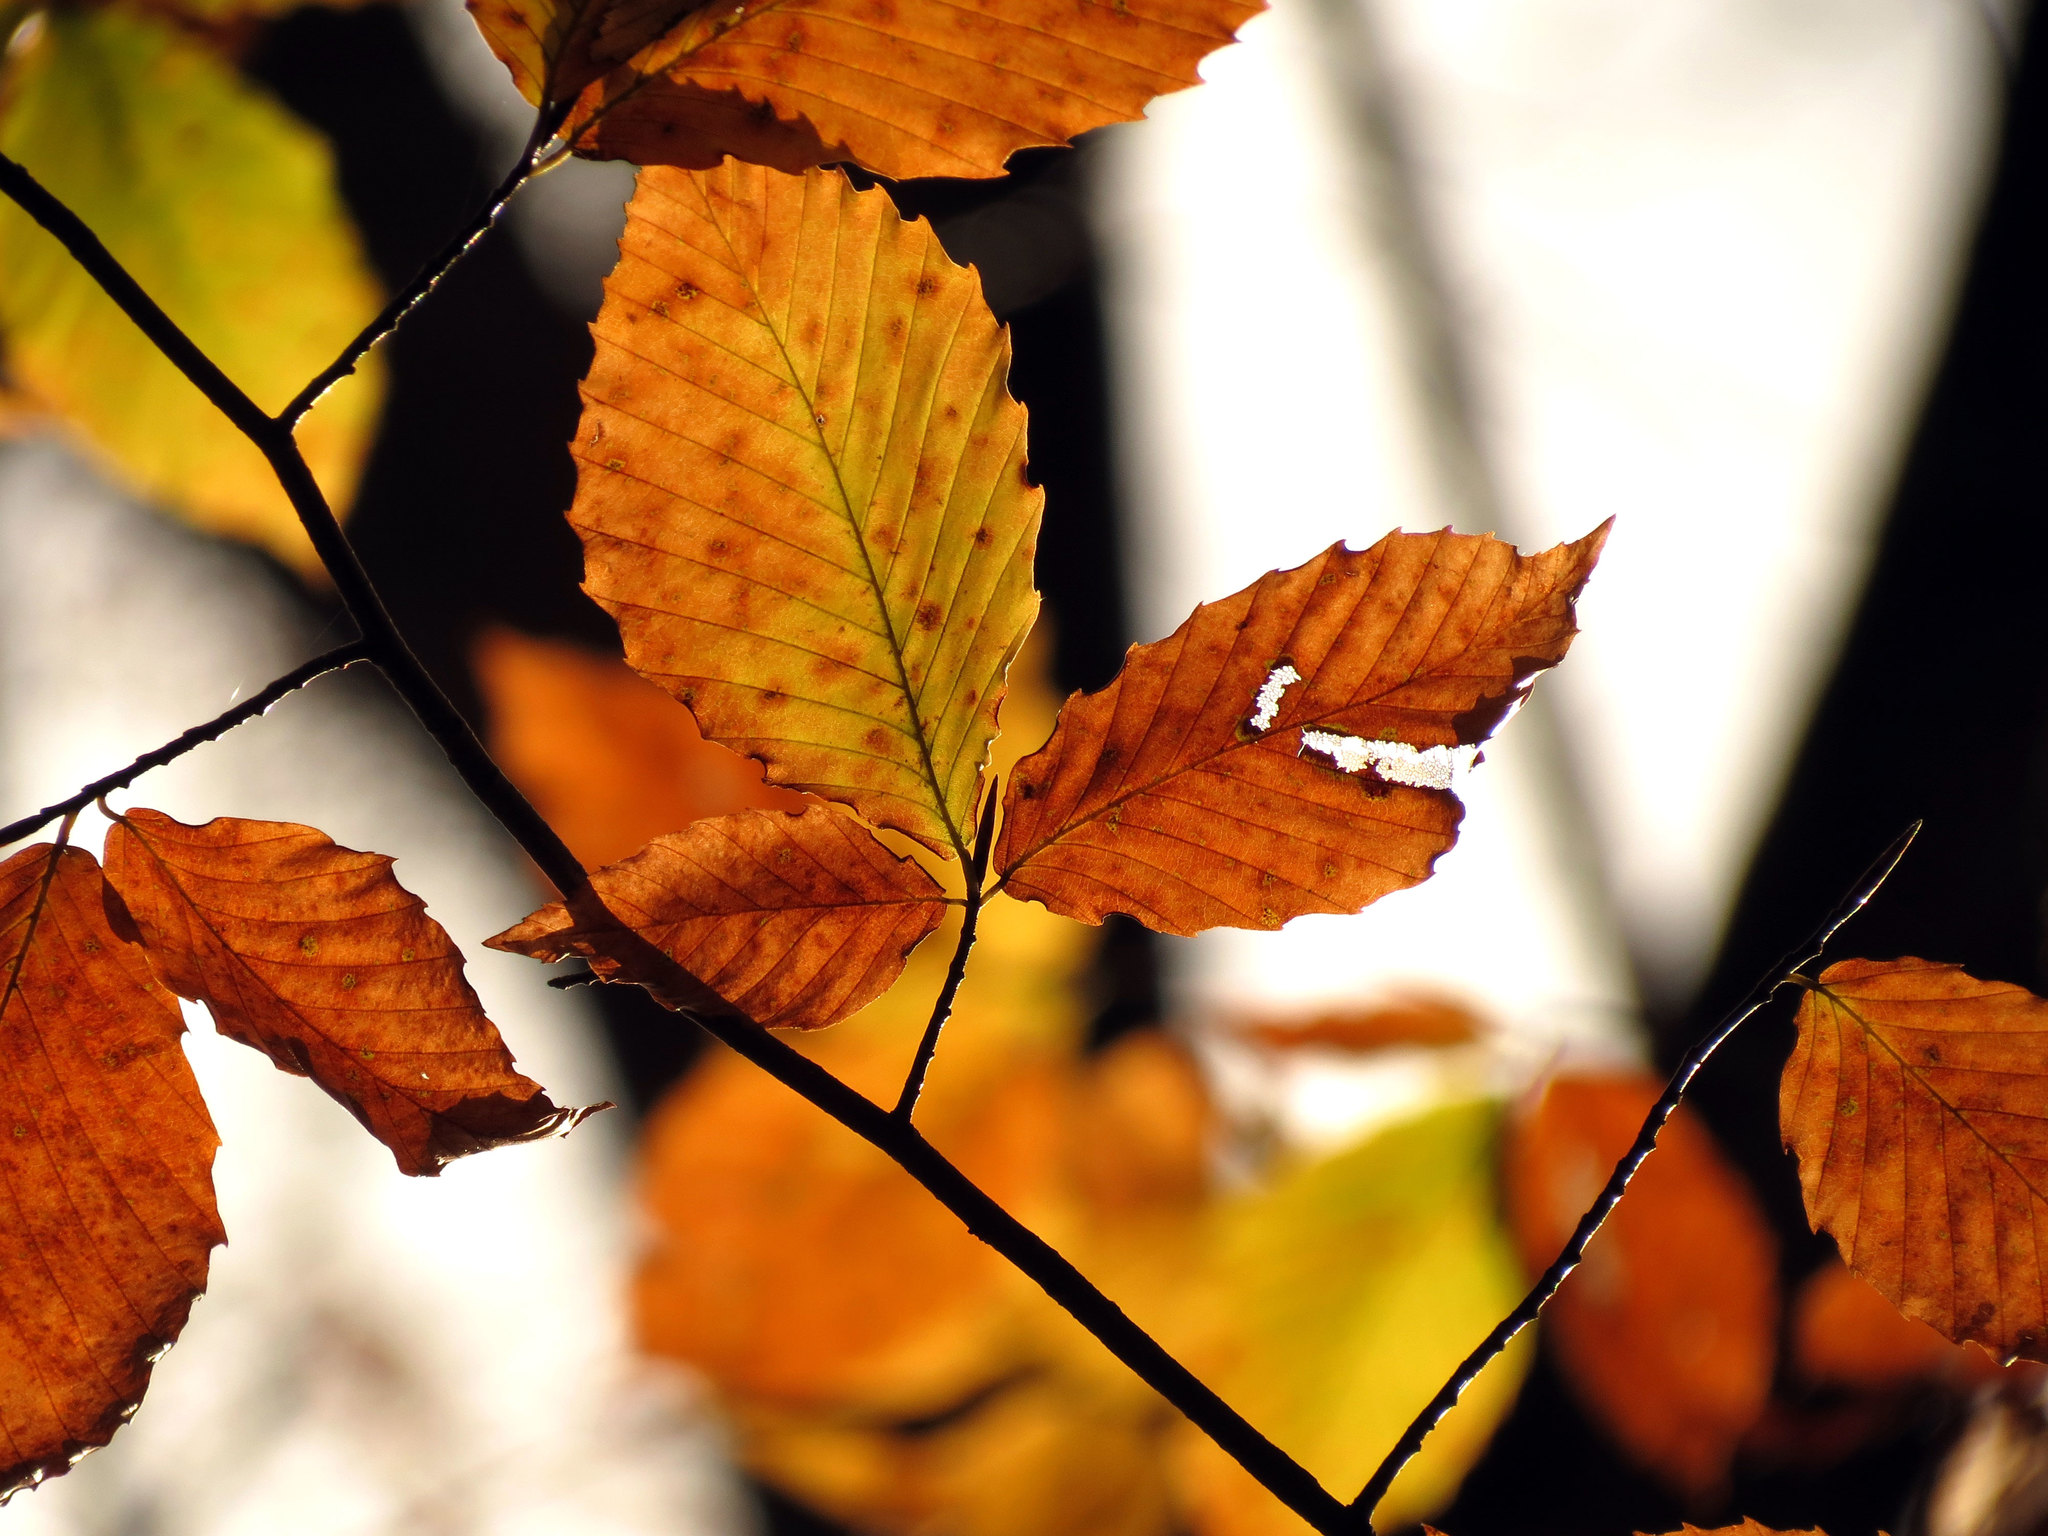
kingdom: Plantae
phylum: Tracheophyta
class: Magnoliopsida
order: Fagales
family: Fagaceae
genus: Fagus
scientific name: Fagus grandifolia
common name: American beech
